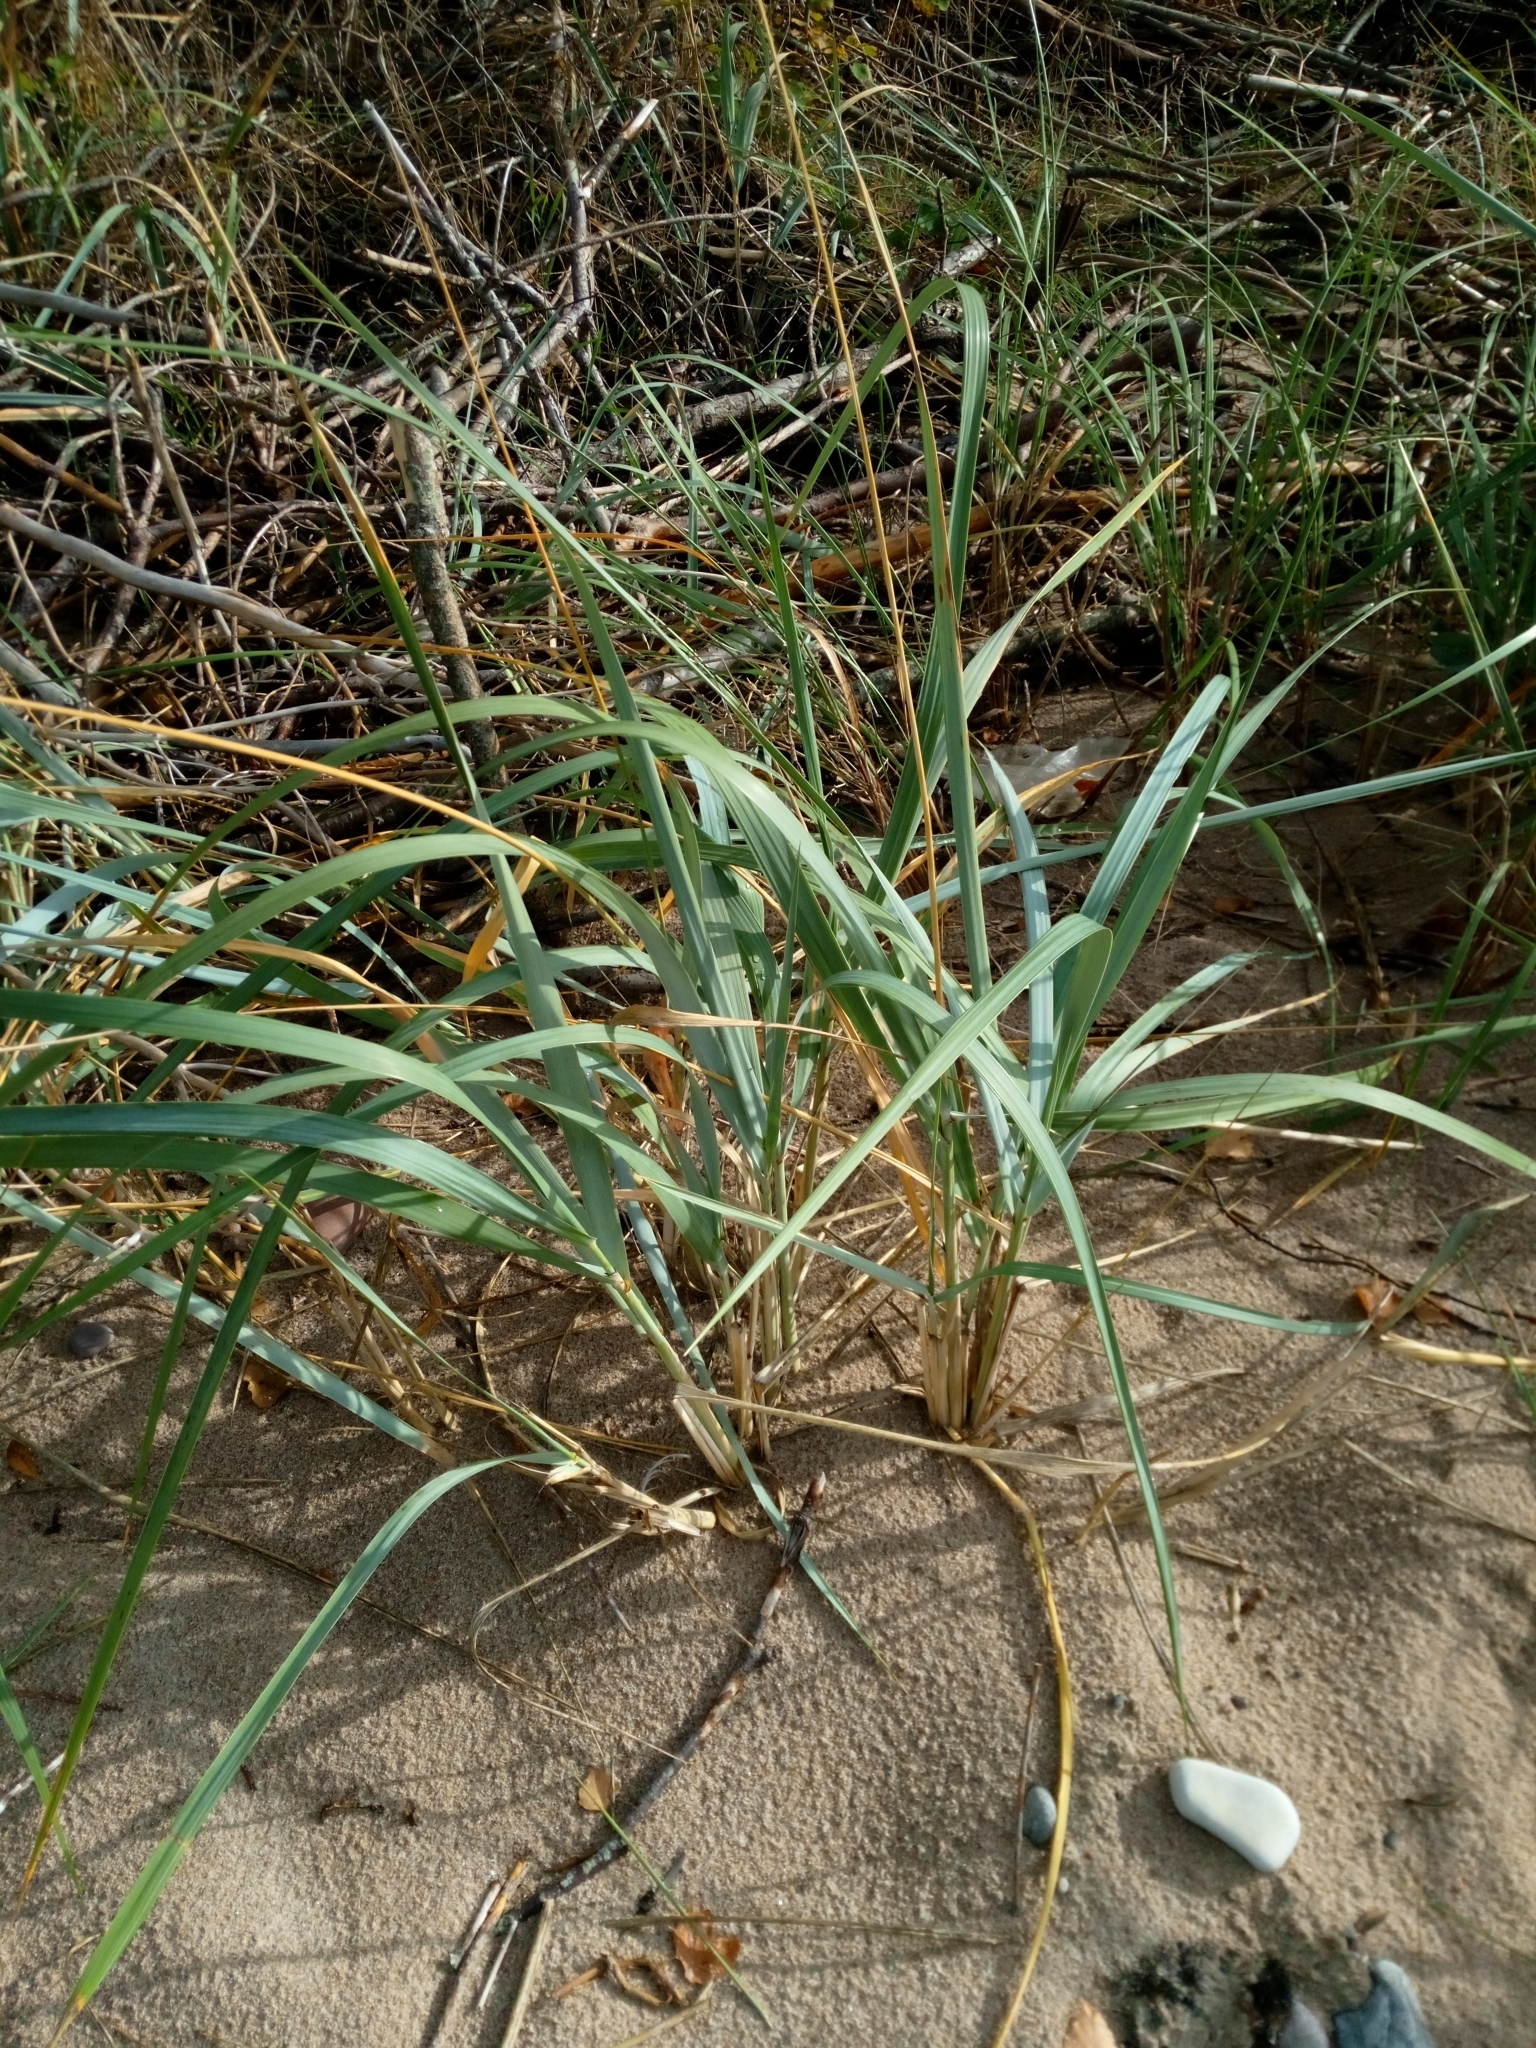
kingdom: Plantae
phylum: Tracheophyta
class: Liliopsida
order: Poales
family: Poaceae
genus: Leymus
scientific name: Leymus arenarius
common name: Lyme-grass
